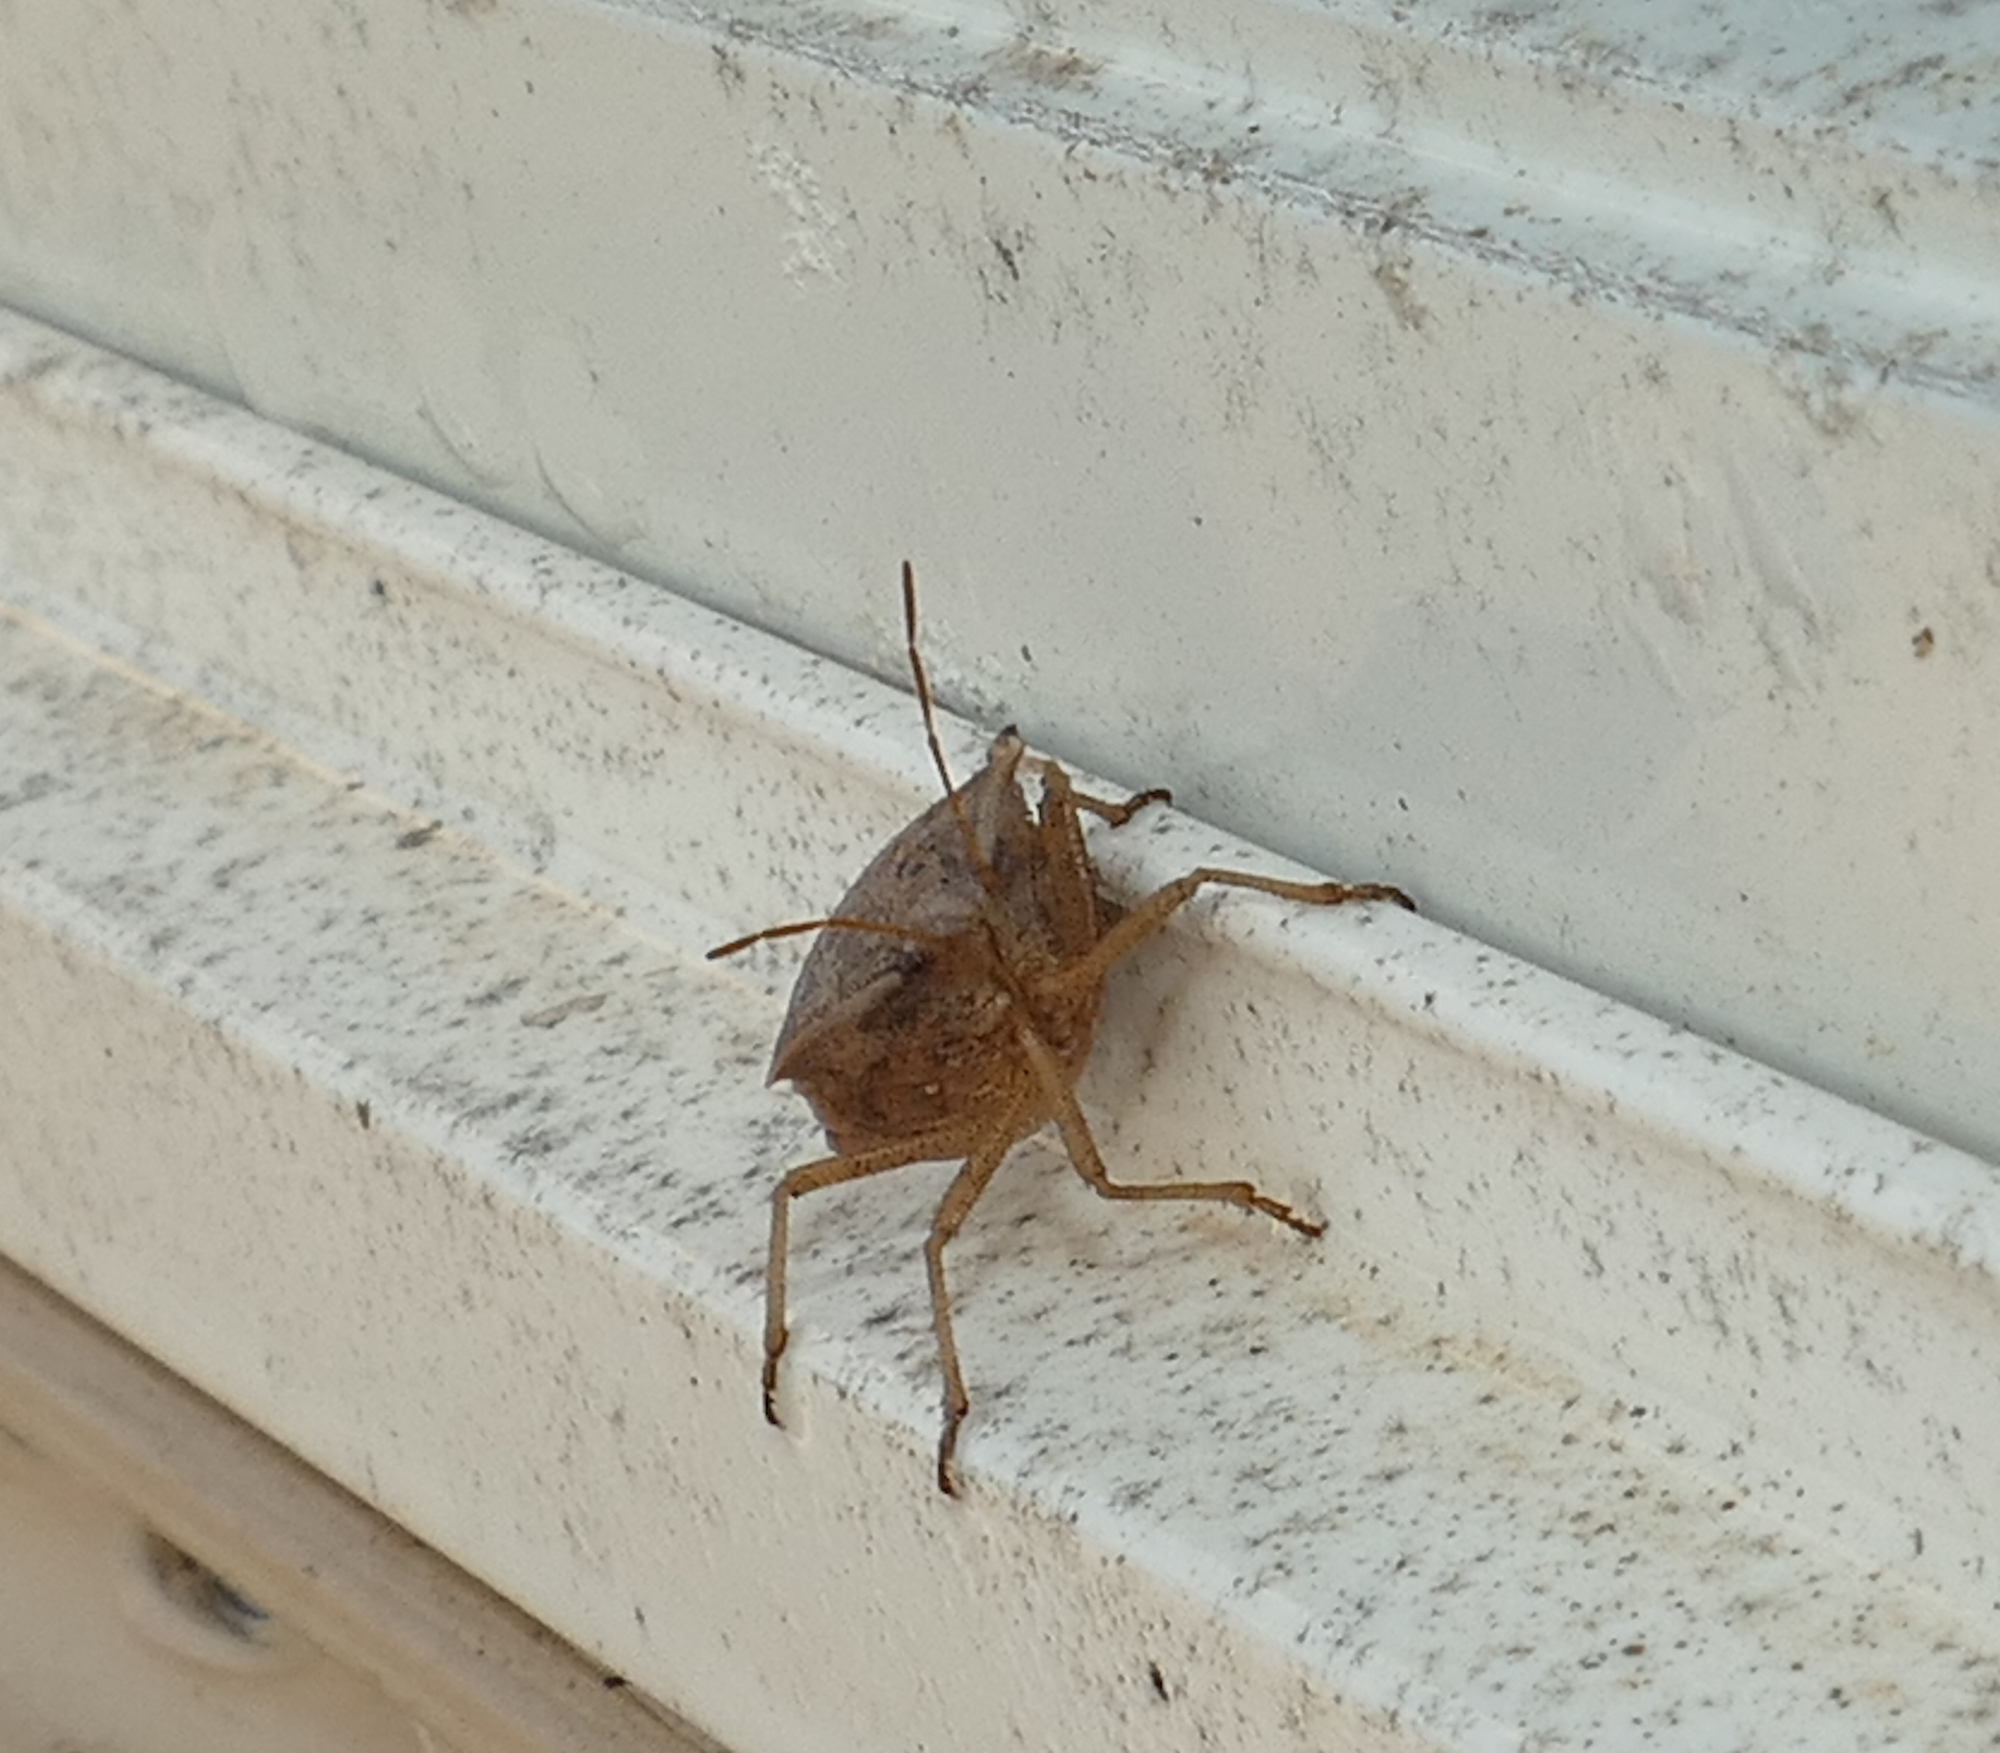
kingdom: Animalia
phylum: Arthropoda
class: Insecta
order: Hemiptera
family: Pentatomidae
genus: Euschistus
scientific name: Euschistus crassus
